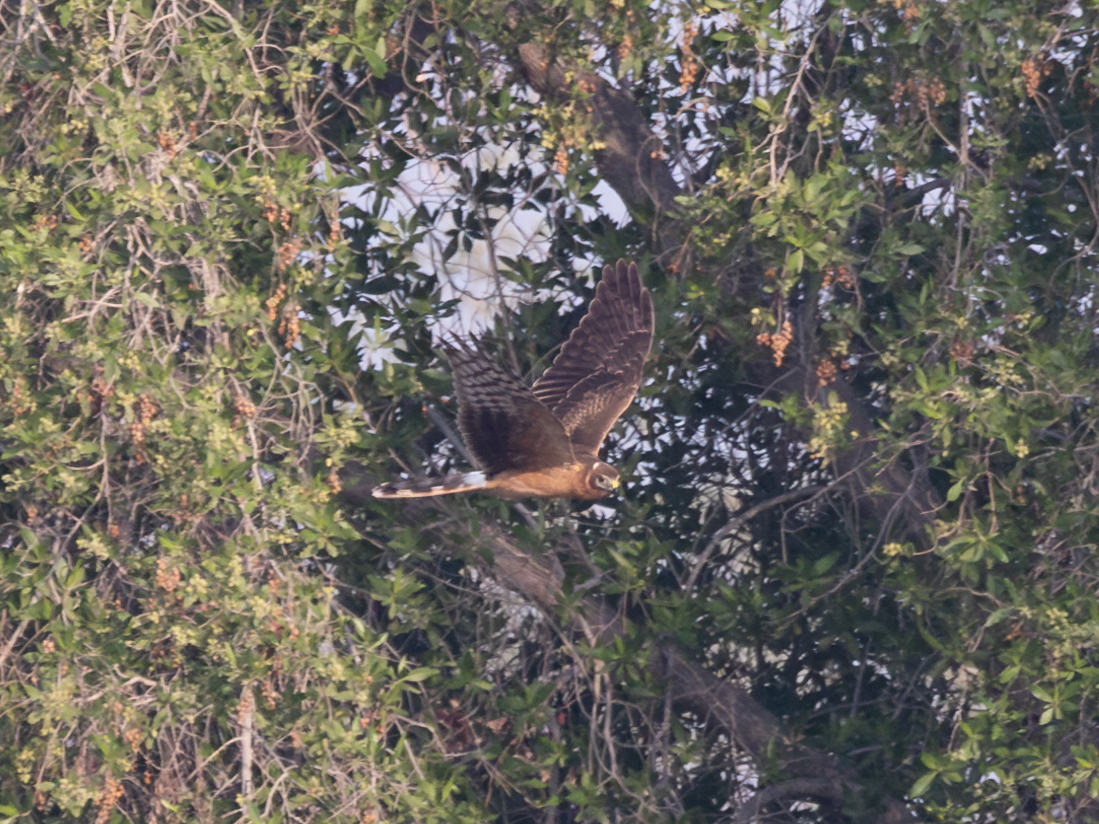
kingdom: Animalia
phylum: Chordata
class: Aves
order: Accipitriformes
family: Accipitridae
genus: Circus
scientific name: Circus macrourus
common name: Pallid harrier
